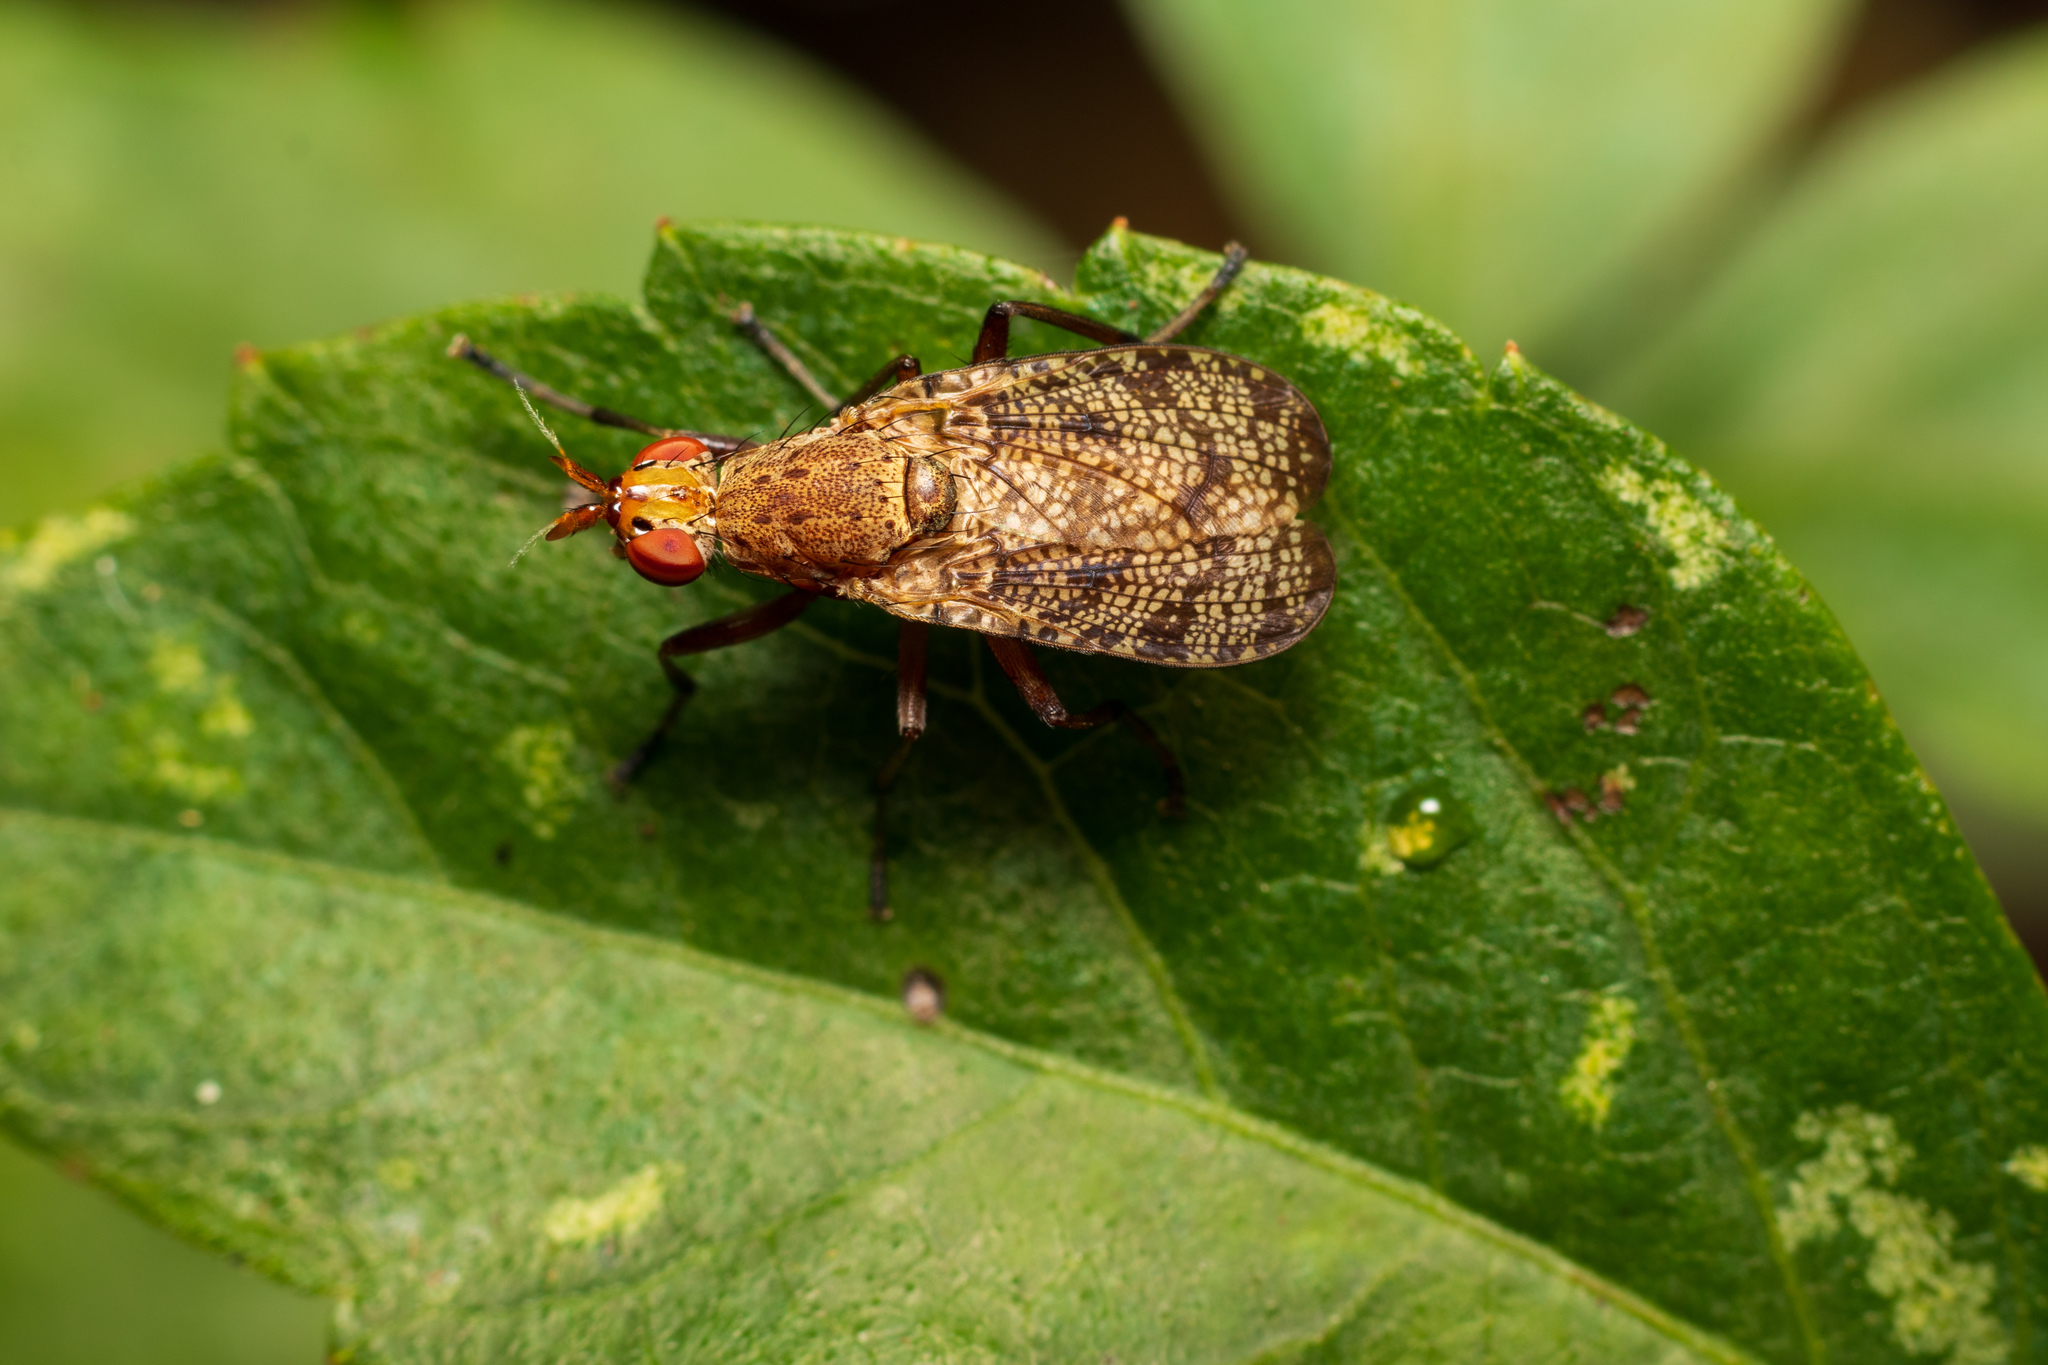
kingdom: Animalia
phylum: Arthropoda
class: Insecta
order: Diptera
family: Sciomyzidae
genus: Euthycera
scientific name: Euthycera flavescens
